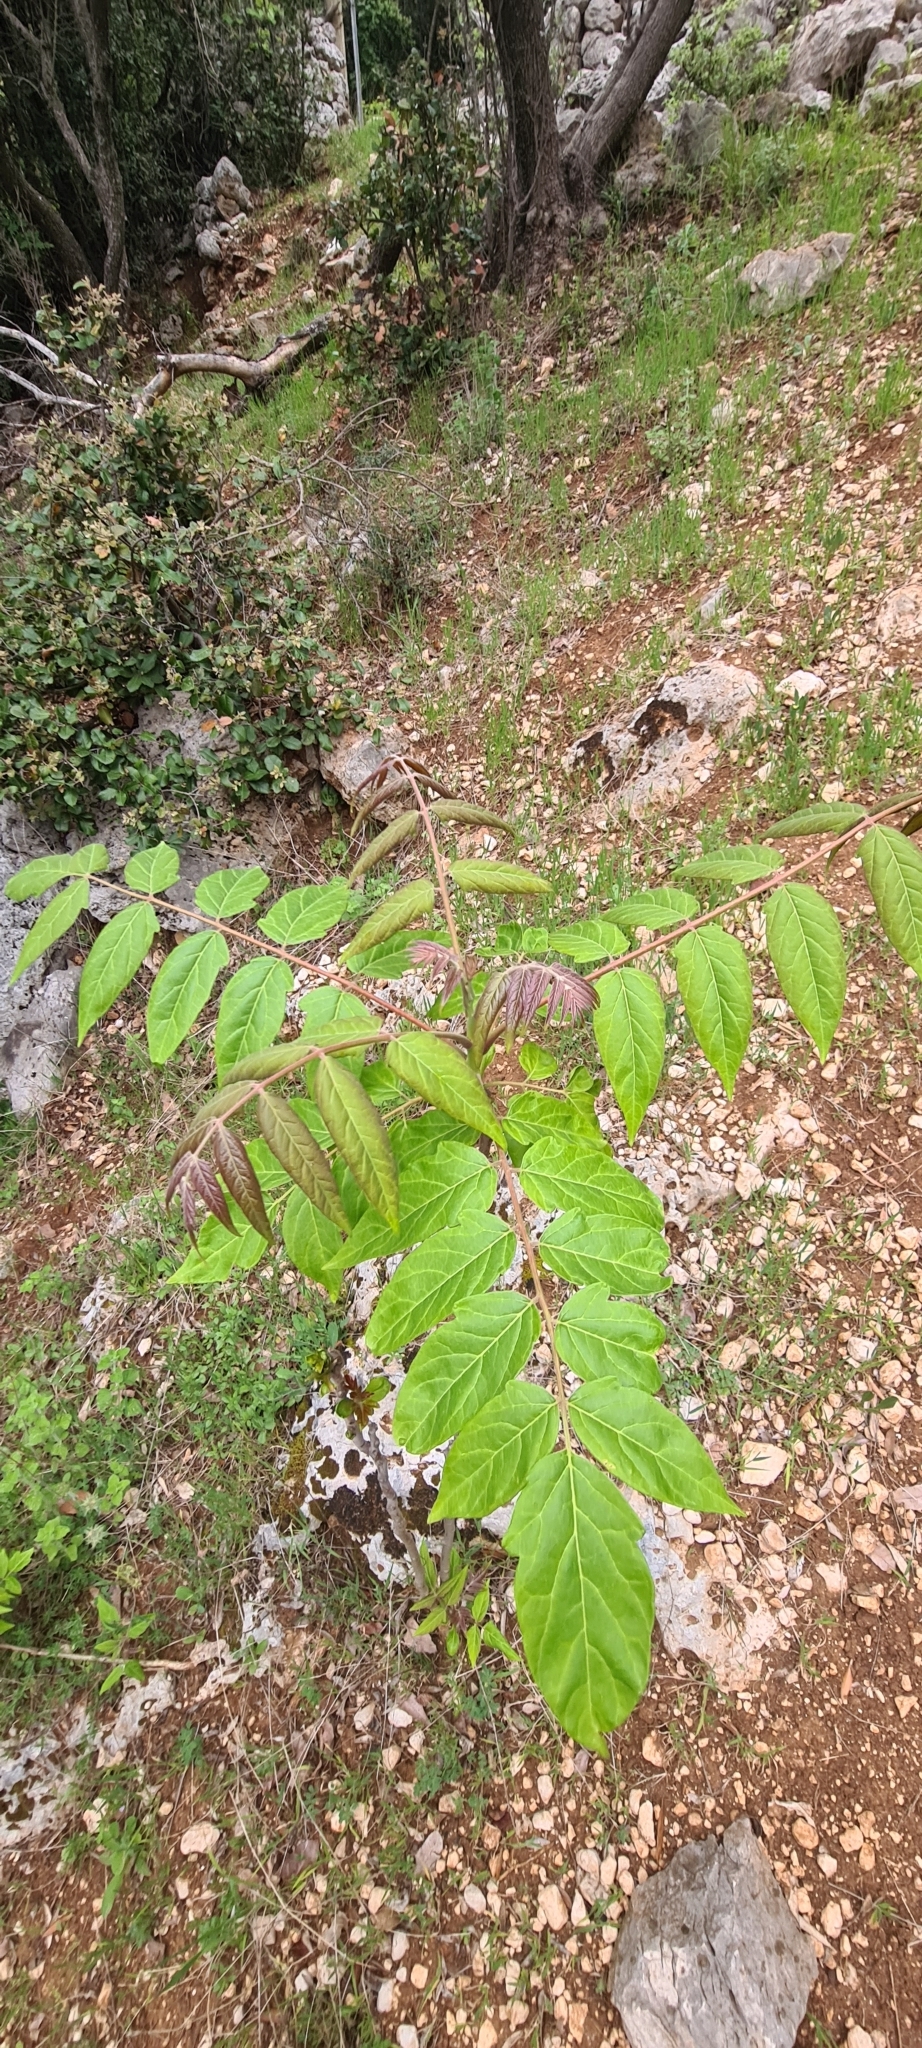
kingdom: Plantae
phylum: Tracheophyta
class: Magnoliopsida
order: Sapindales
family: Simaroubaceae
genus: Ailanthus
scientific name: Ailanthus altissima
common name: Tree-of-heaven
